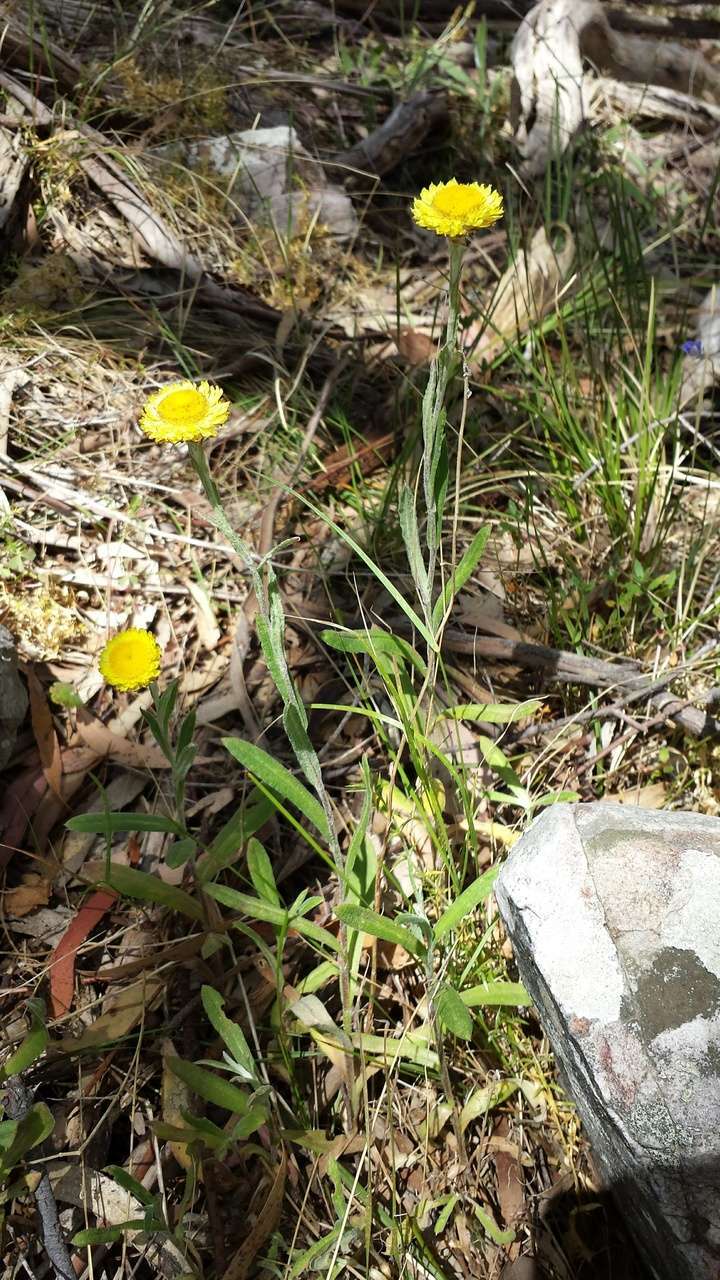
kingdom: Plantae
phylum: Tracheophyta
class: Magnoliopsida
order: Asterales
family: Asteraceae
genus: Coronidium
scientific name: Coronidium scorpioides
